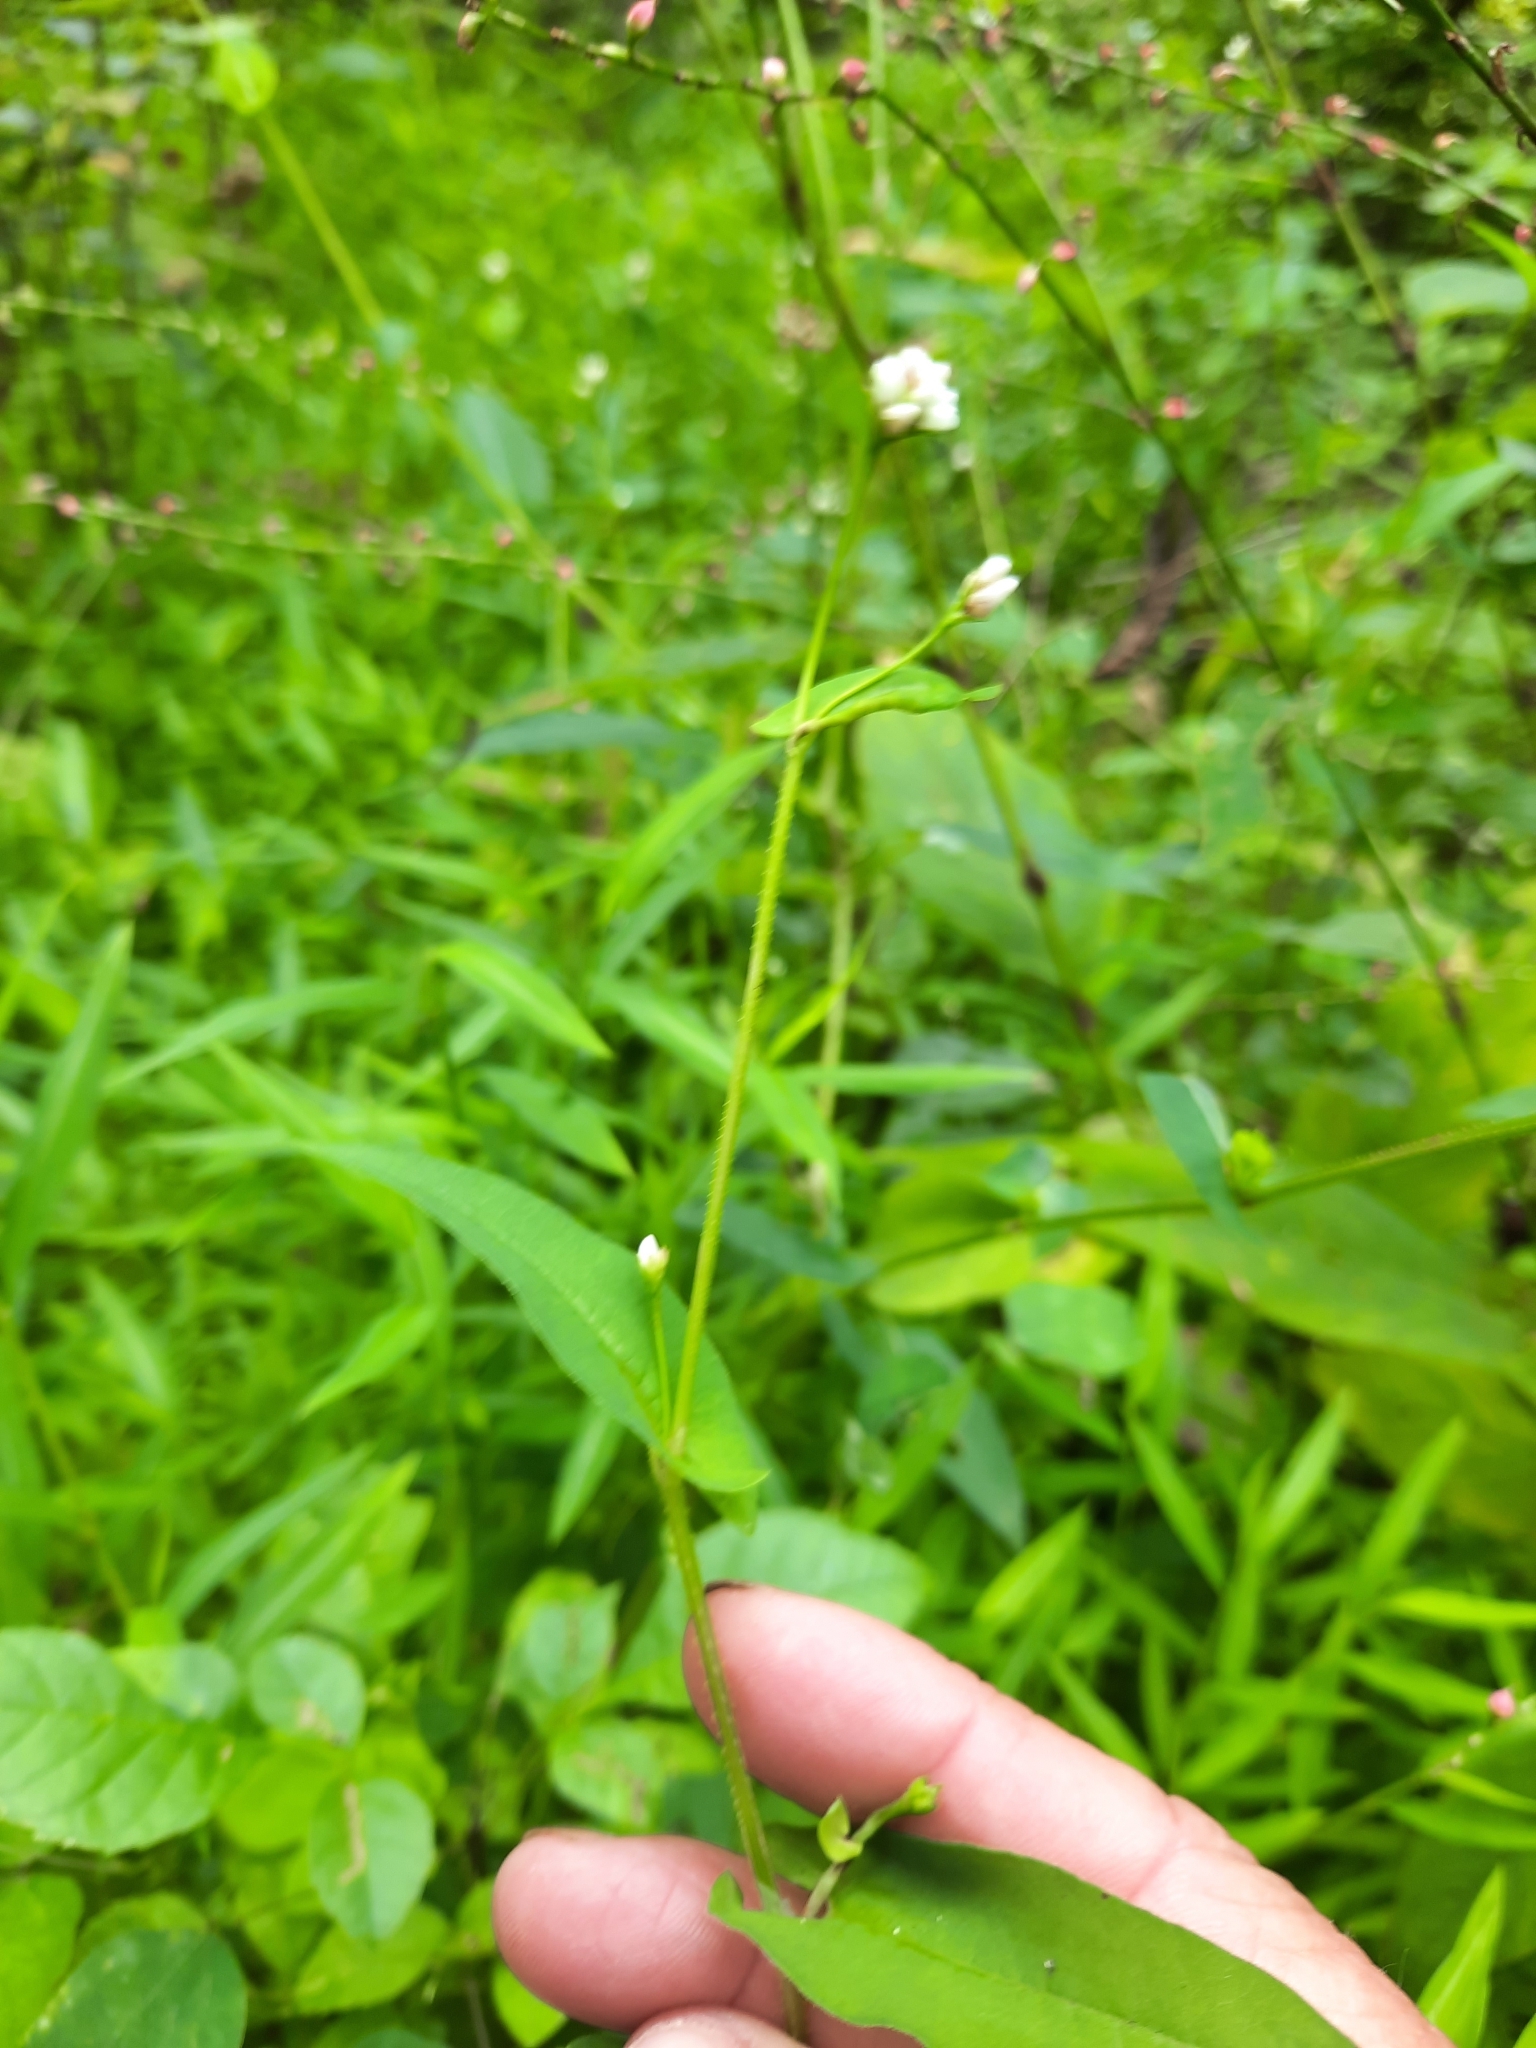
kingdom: Plantae
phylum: Tracheophyta
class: Magnoliopsida
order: Caryophyllales
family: Polygonaceae
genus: Persicaria
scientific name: Persicaria sagittata
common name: American tearthumb
